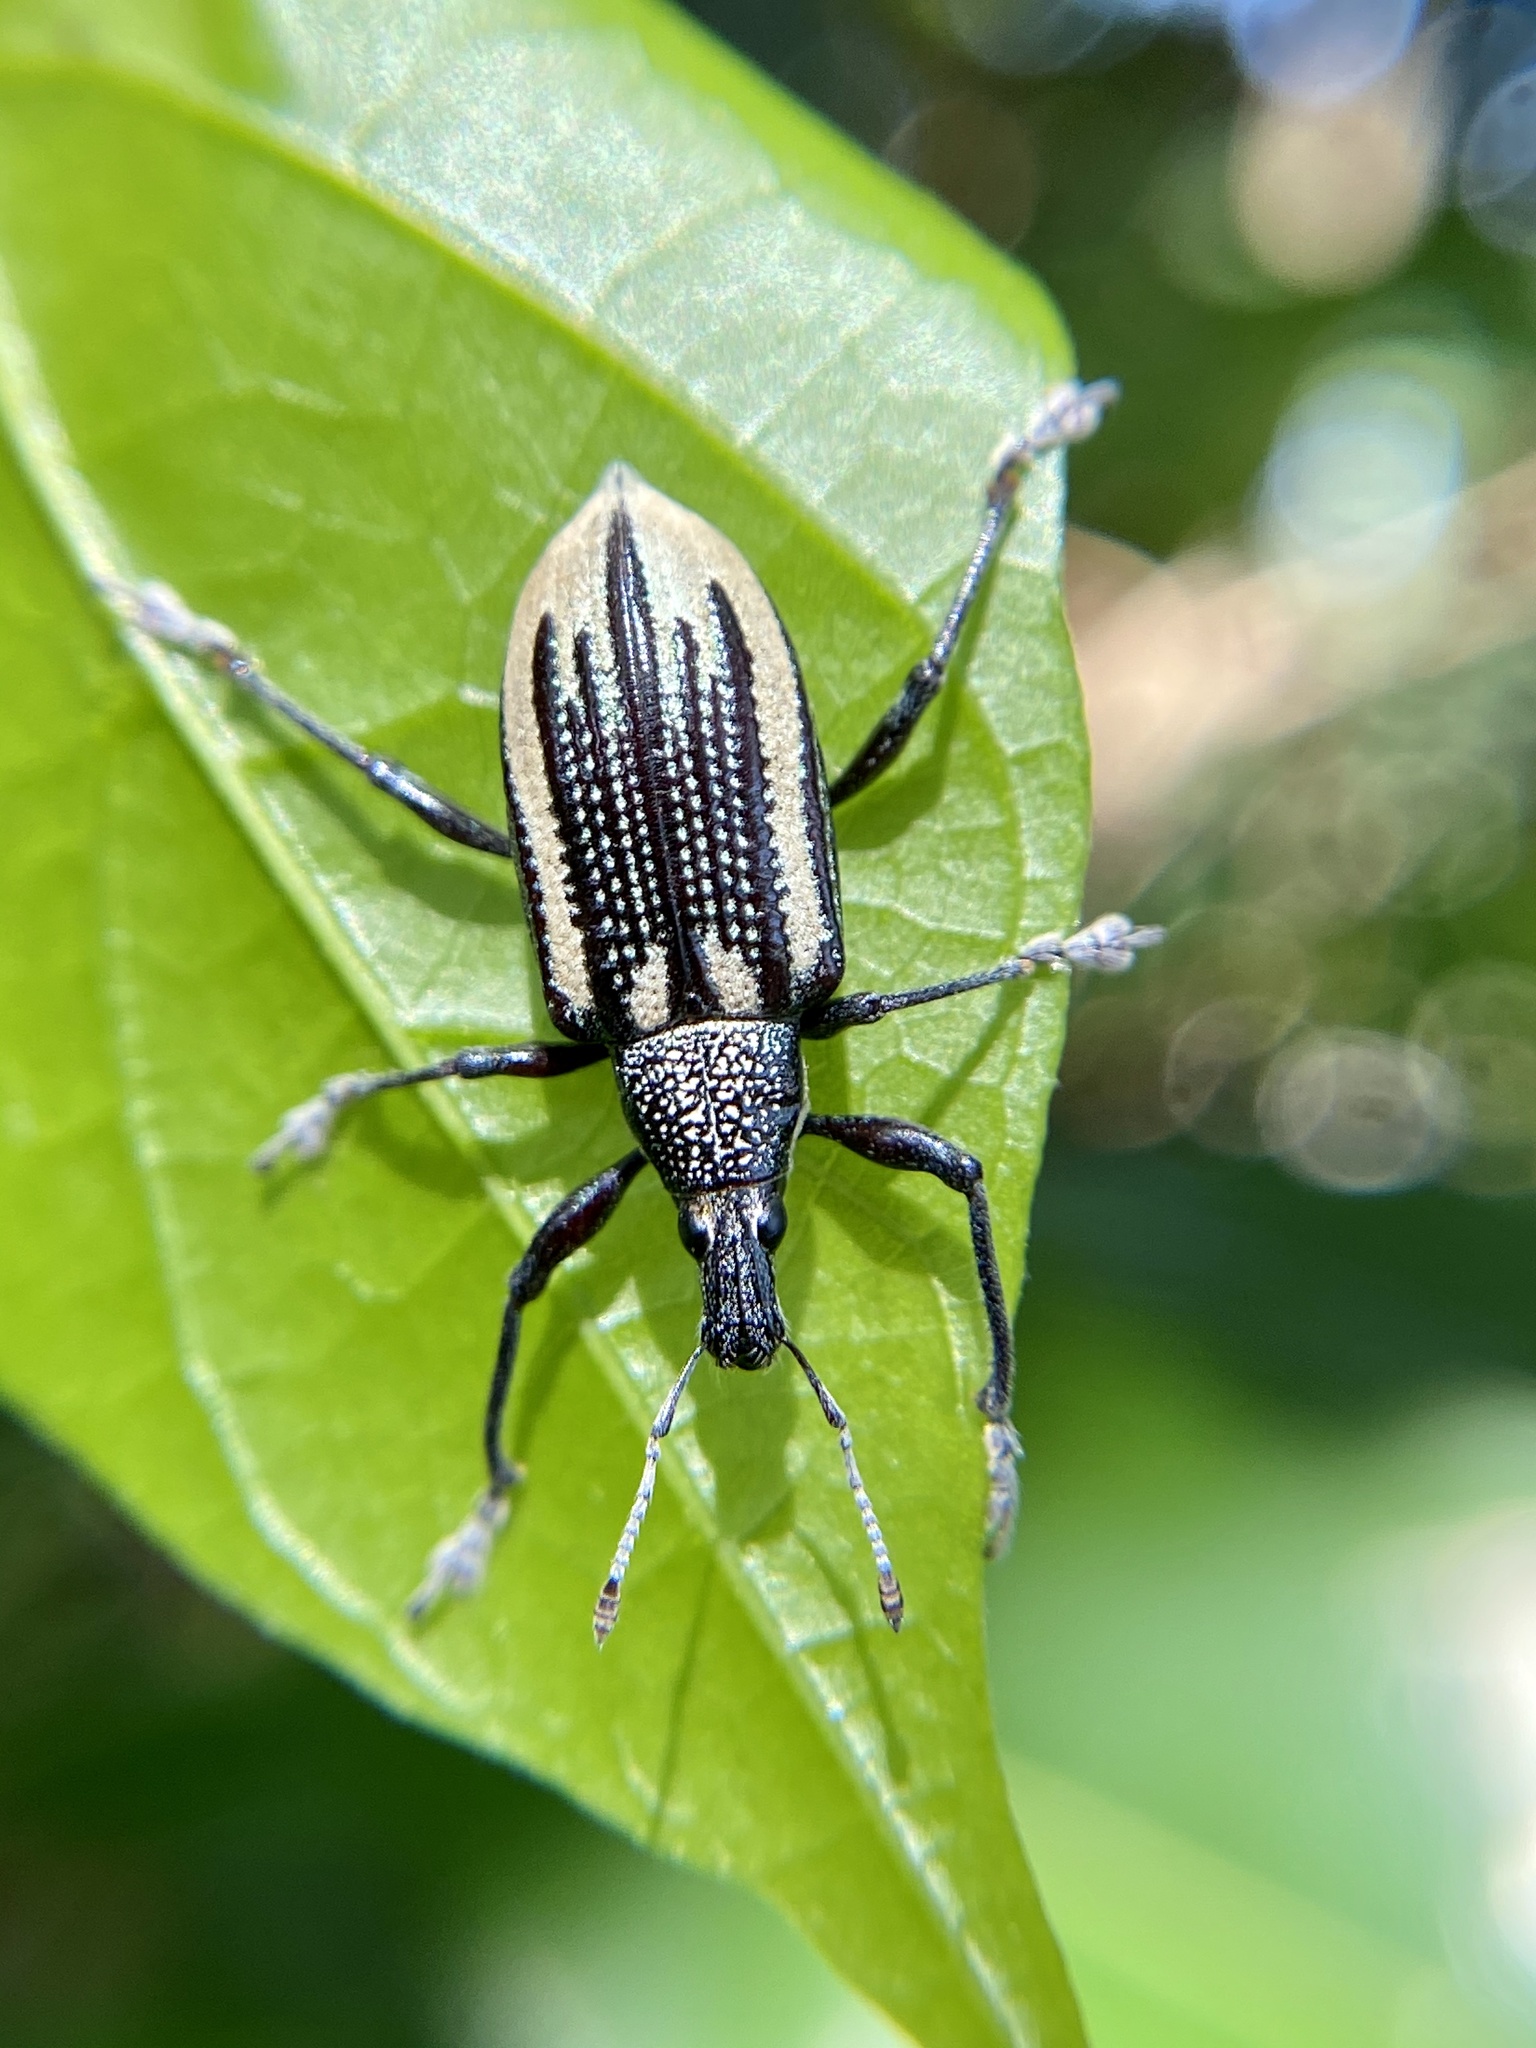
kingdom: Animalia
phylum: Arthropoda
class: Insecta
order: Coleoptera
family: Curculionidae
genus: Diaprepes
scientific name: Diaprepes abbreviatus
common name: Root weevil
